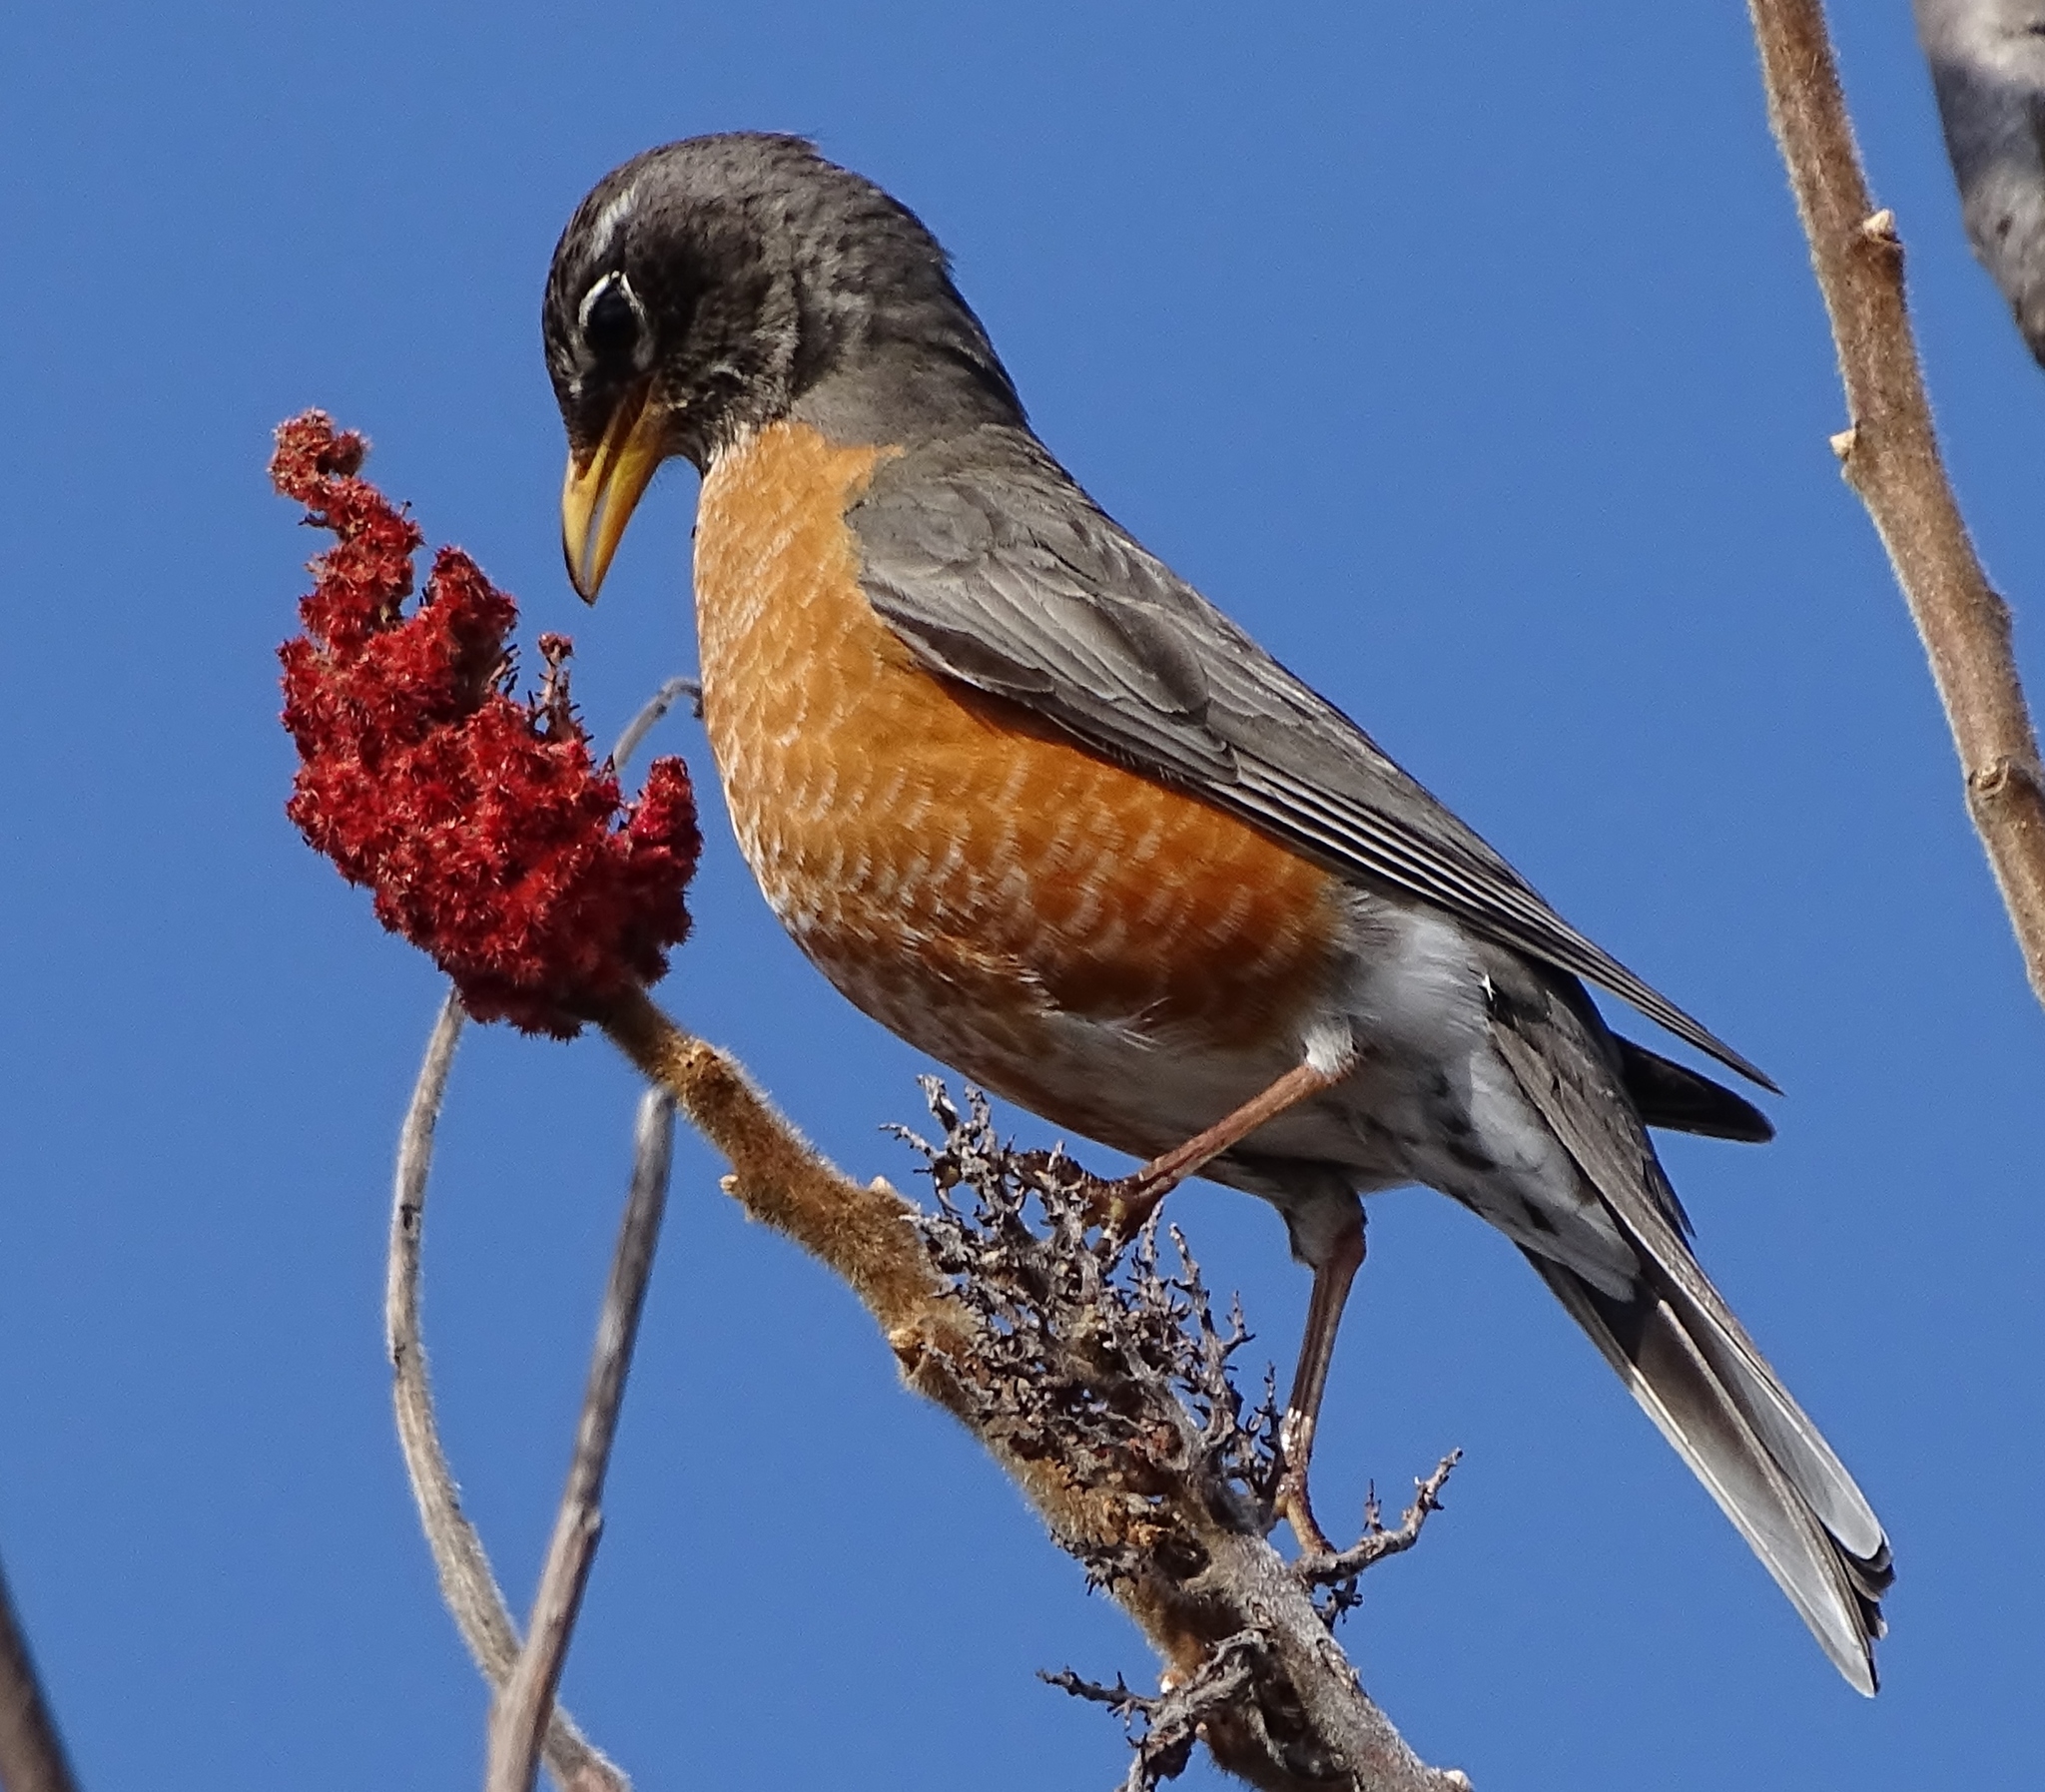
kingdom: Animalia
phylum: Chordata
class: Aves
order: Passeriformes
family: Turdidae
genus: Turdus
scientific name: Turdus migratorius
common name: American robin
